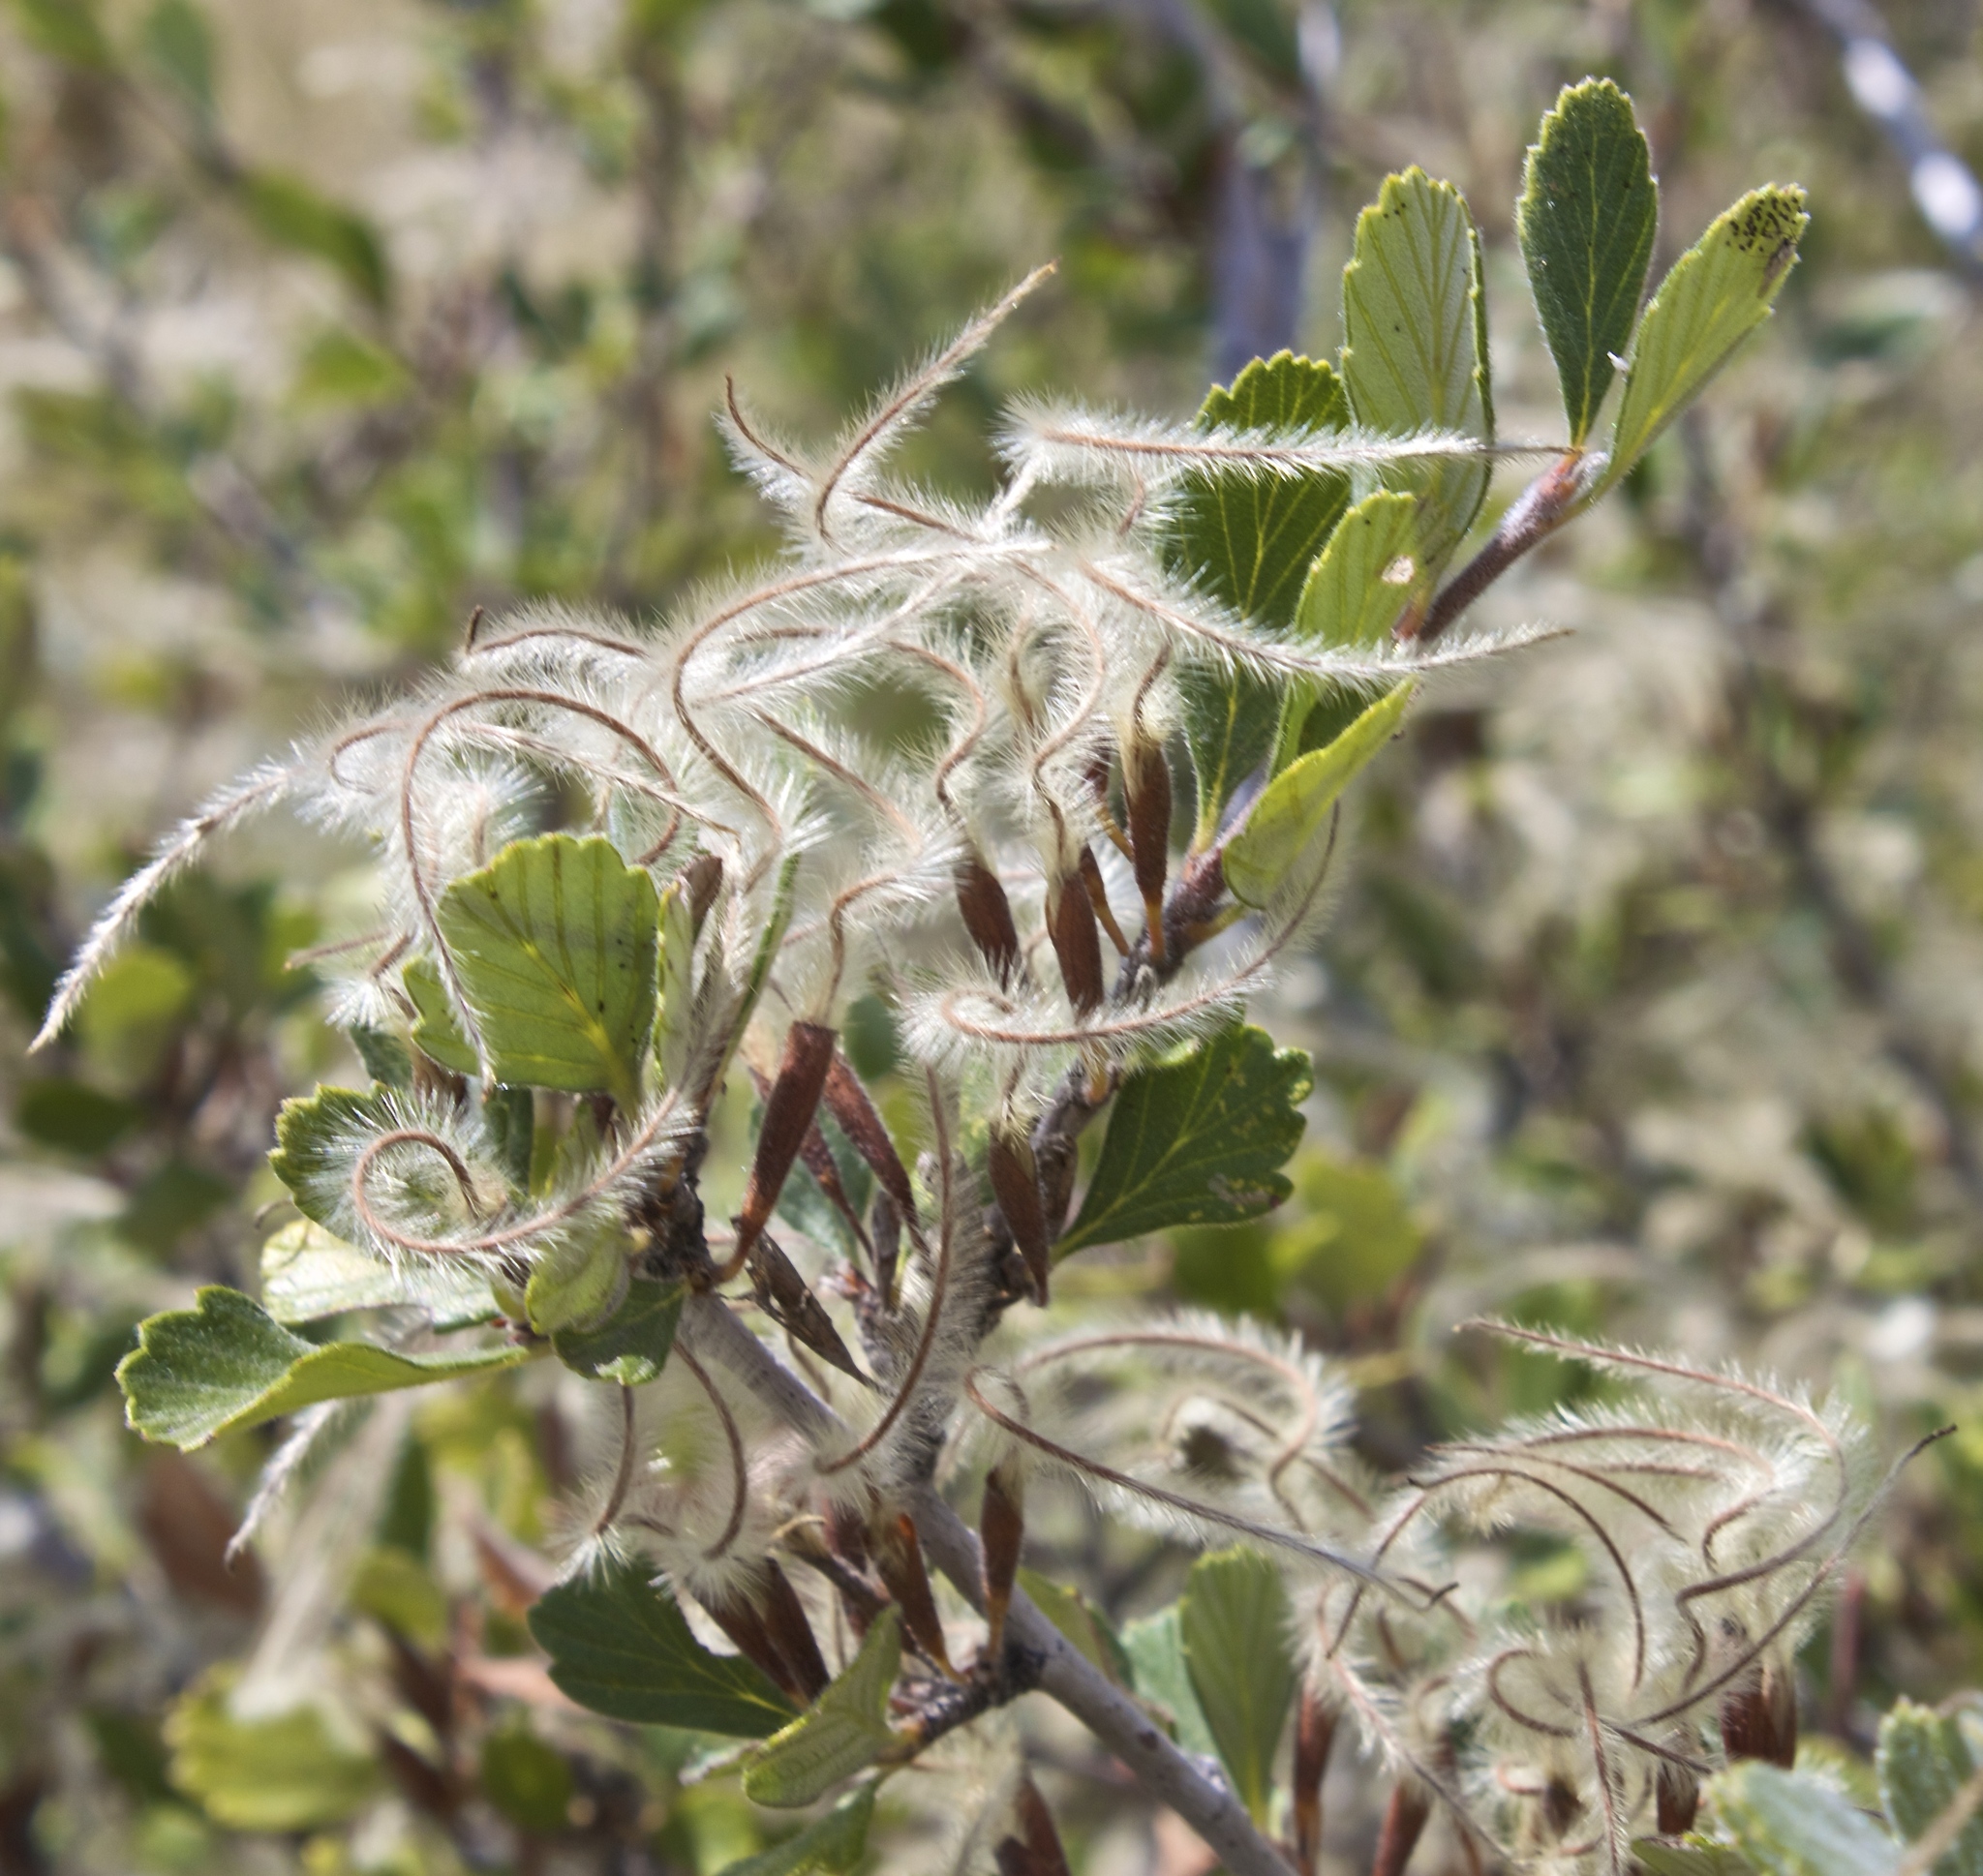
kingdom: Plantae
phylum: Tracheophyta
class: Magnoliopsida
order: Rosales
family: Rosaceae
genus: Cercocarpus
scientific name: Cercocarpus montanus
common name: Alder-leaf cercocarpus
